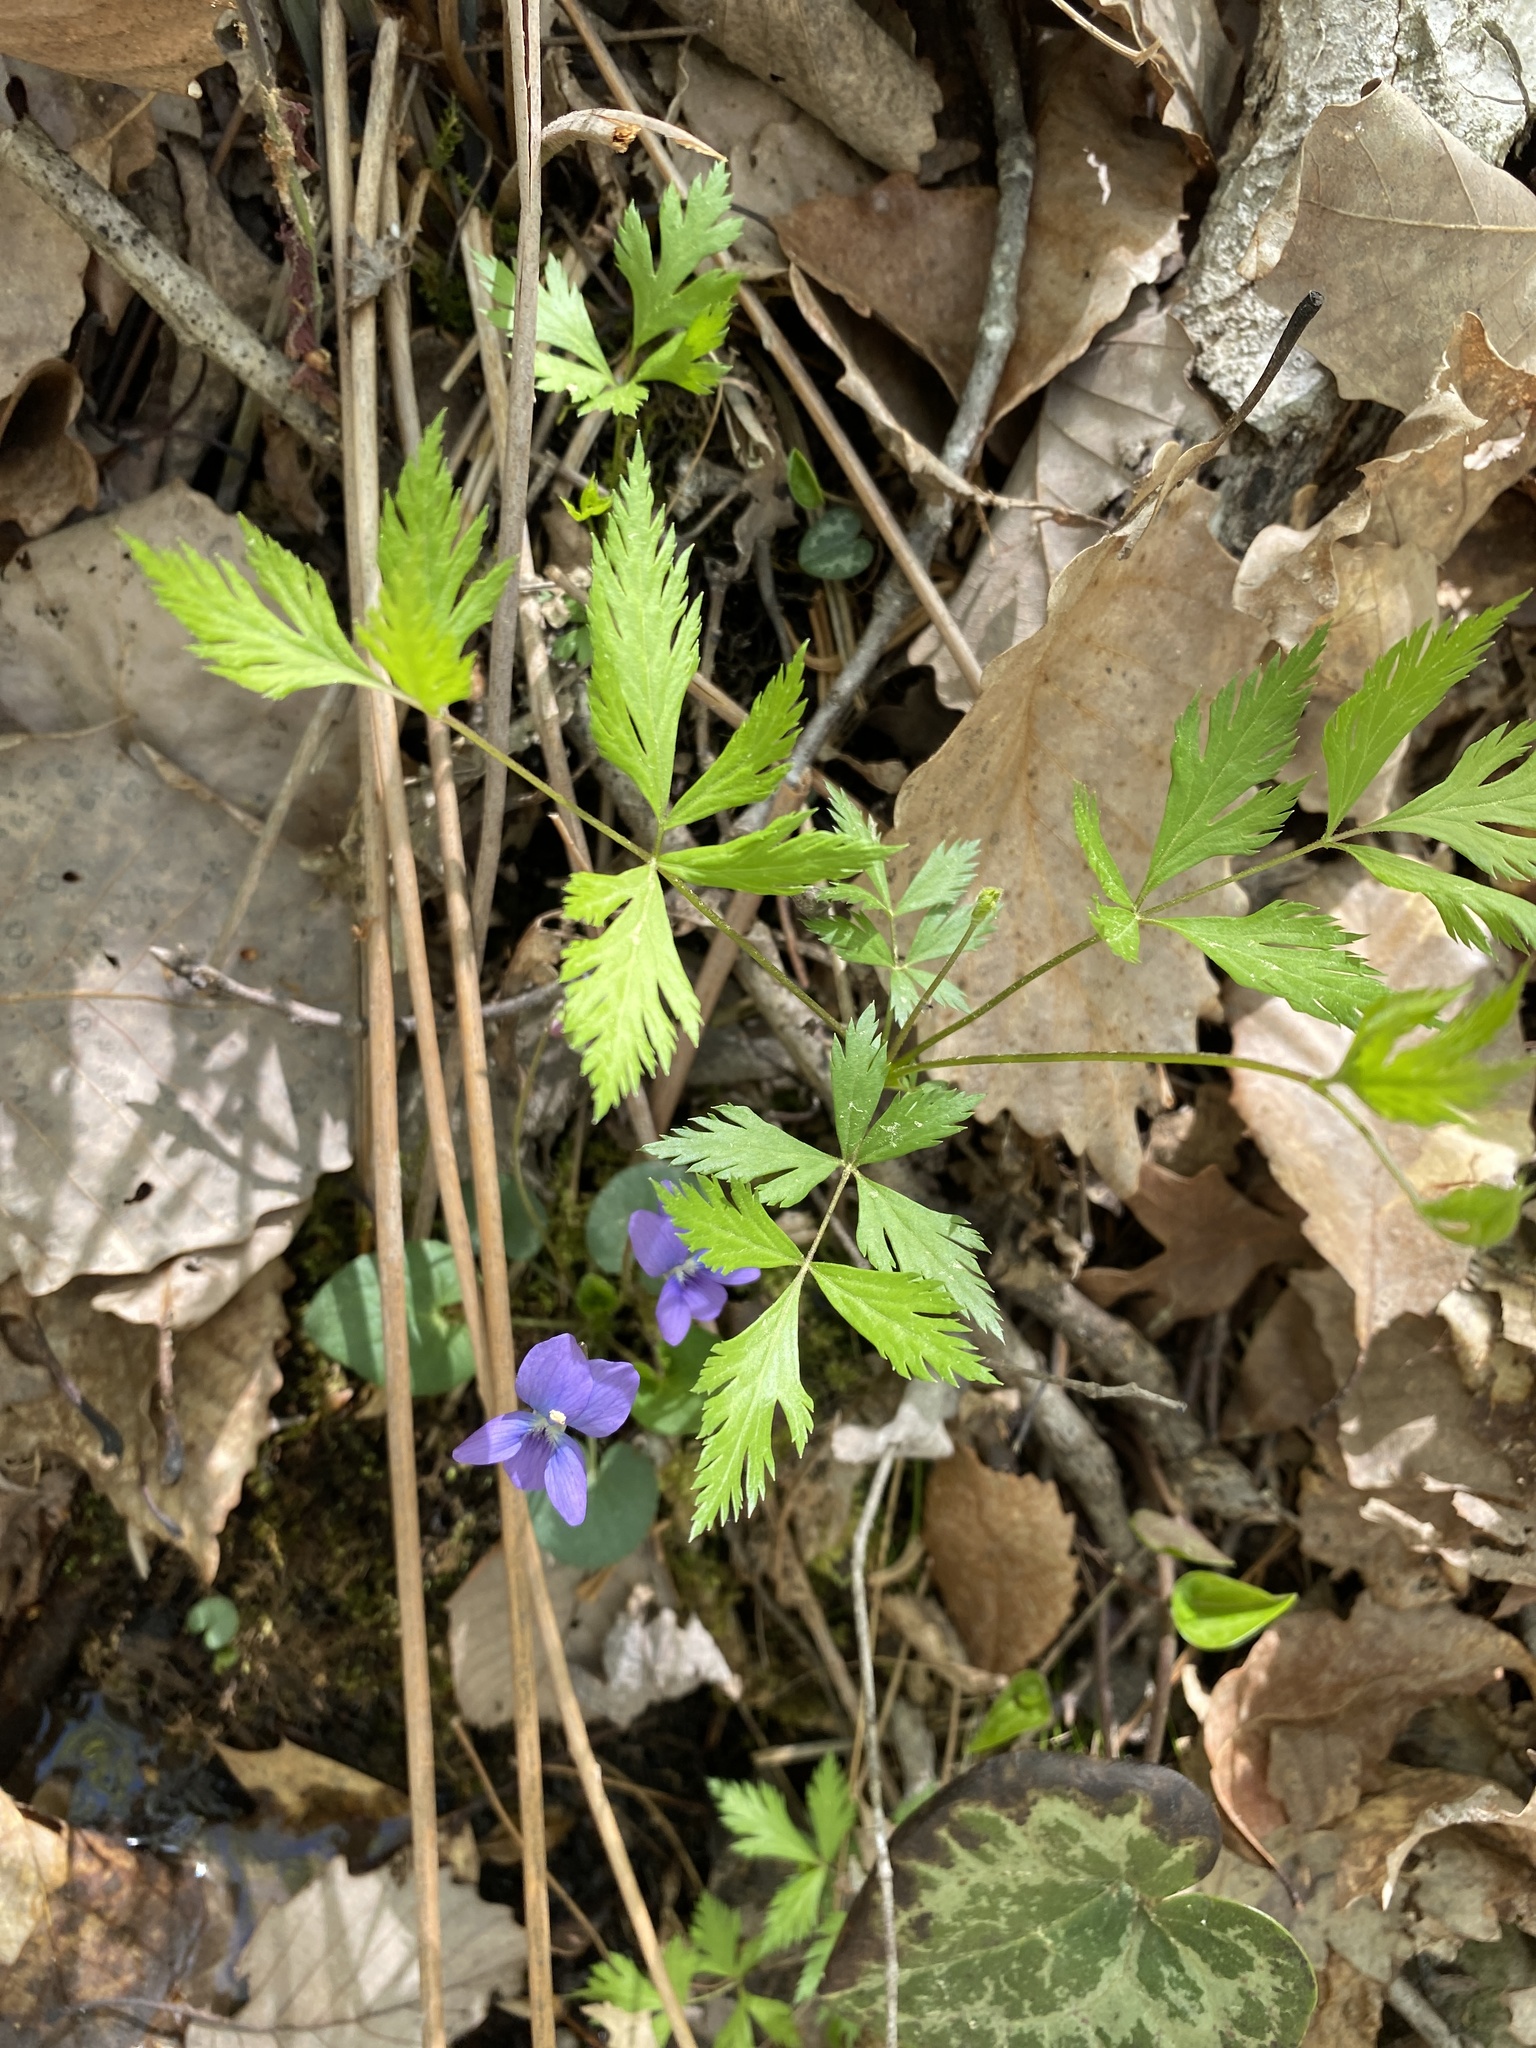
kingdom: Plantae
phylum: Tracheophyta
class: Magnoliopsida
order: Ranunculales
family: Ranunculaceae
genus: Xanthorhiza
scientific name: Xanthorhiza simplicissima
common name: Yellowroot
